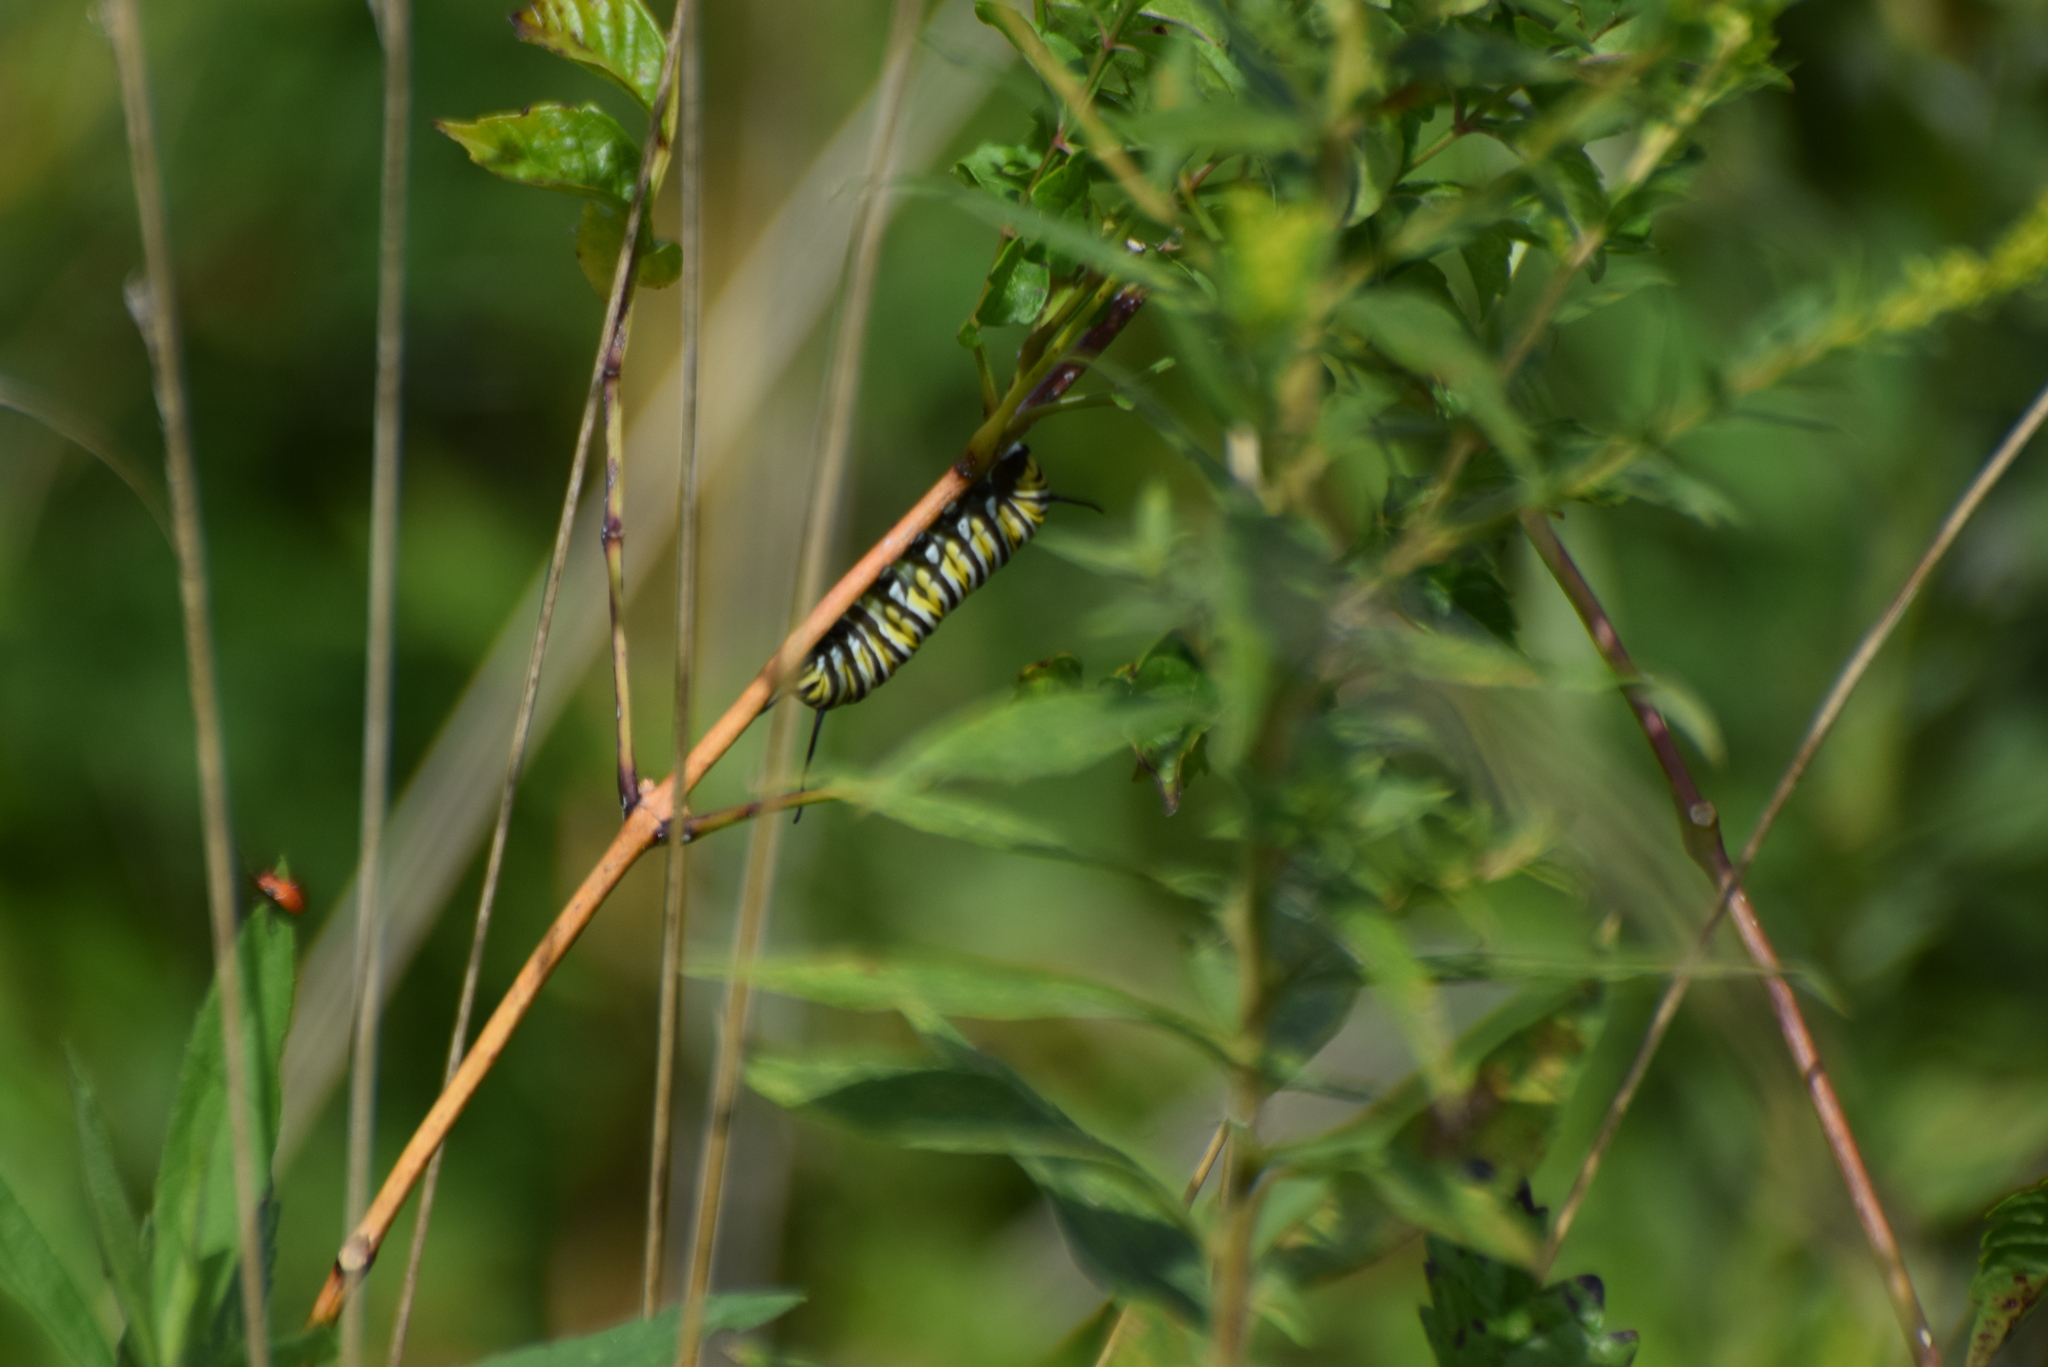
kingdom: Animalia
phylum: Arthropoda
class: Insecta
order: Lepidoptera
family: Nymphalidae
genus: Danaus
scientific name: Danaus plexippus
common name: Monarch
